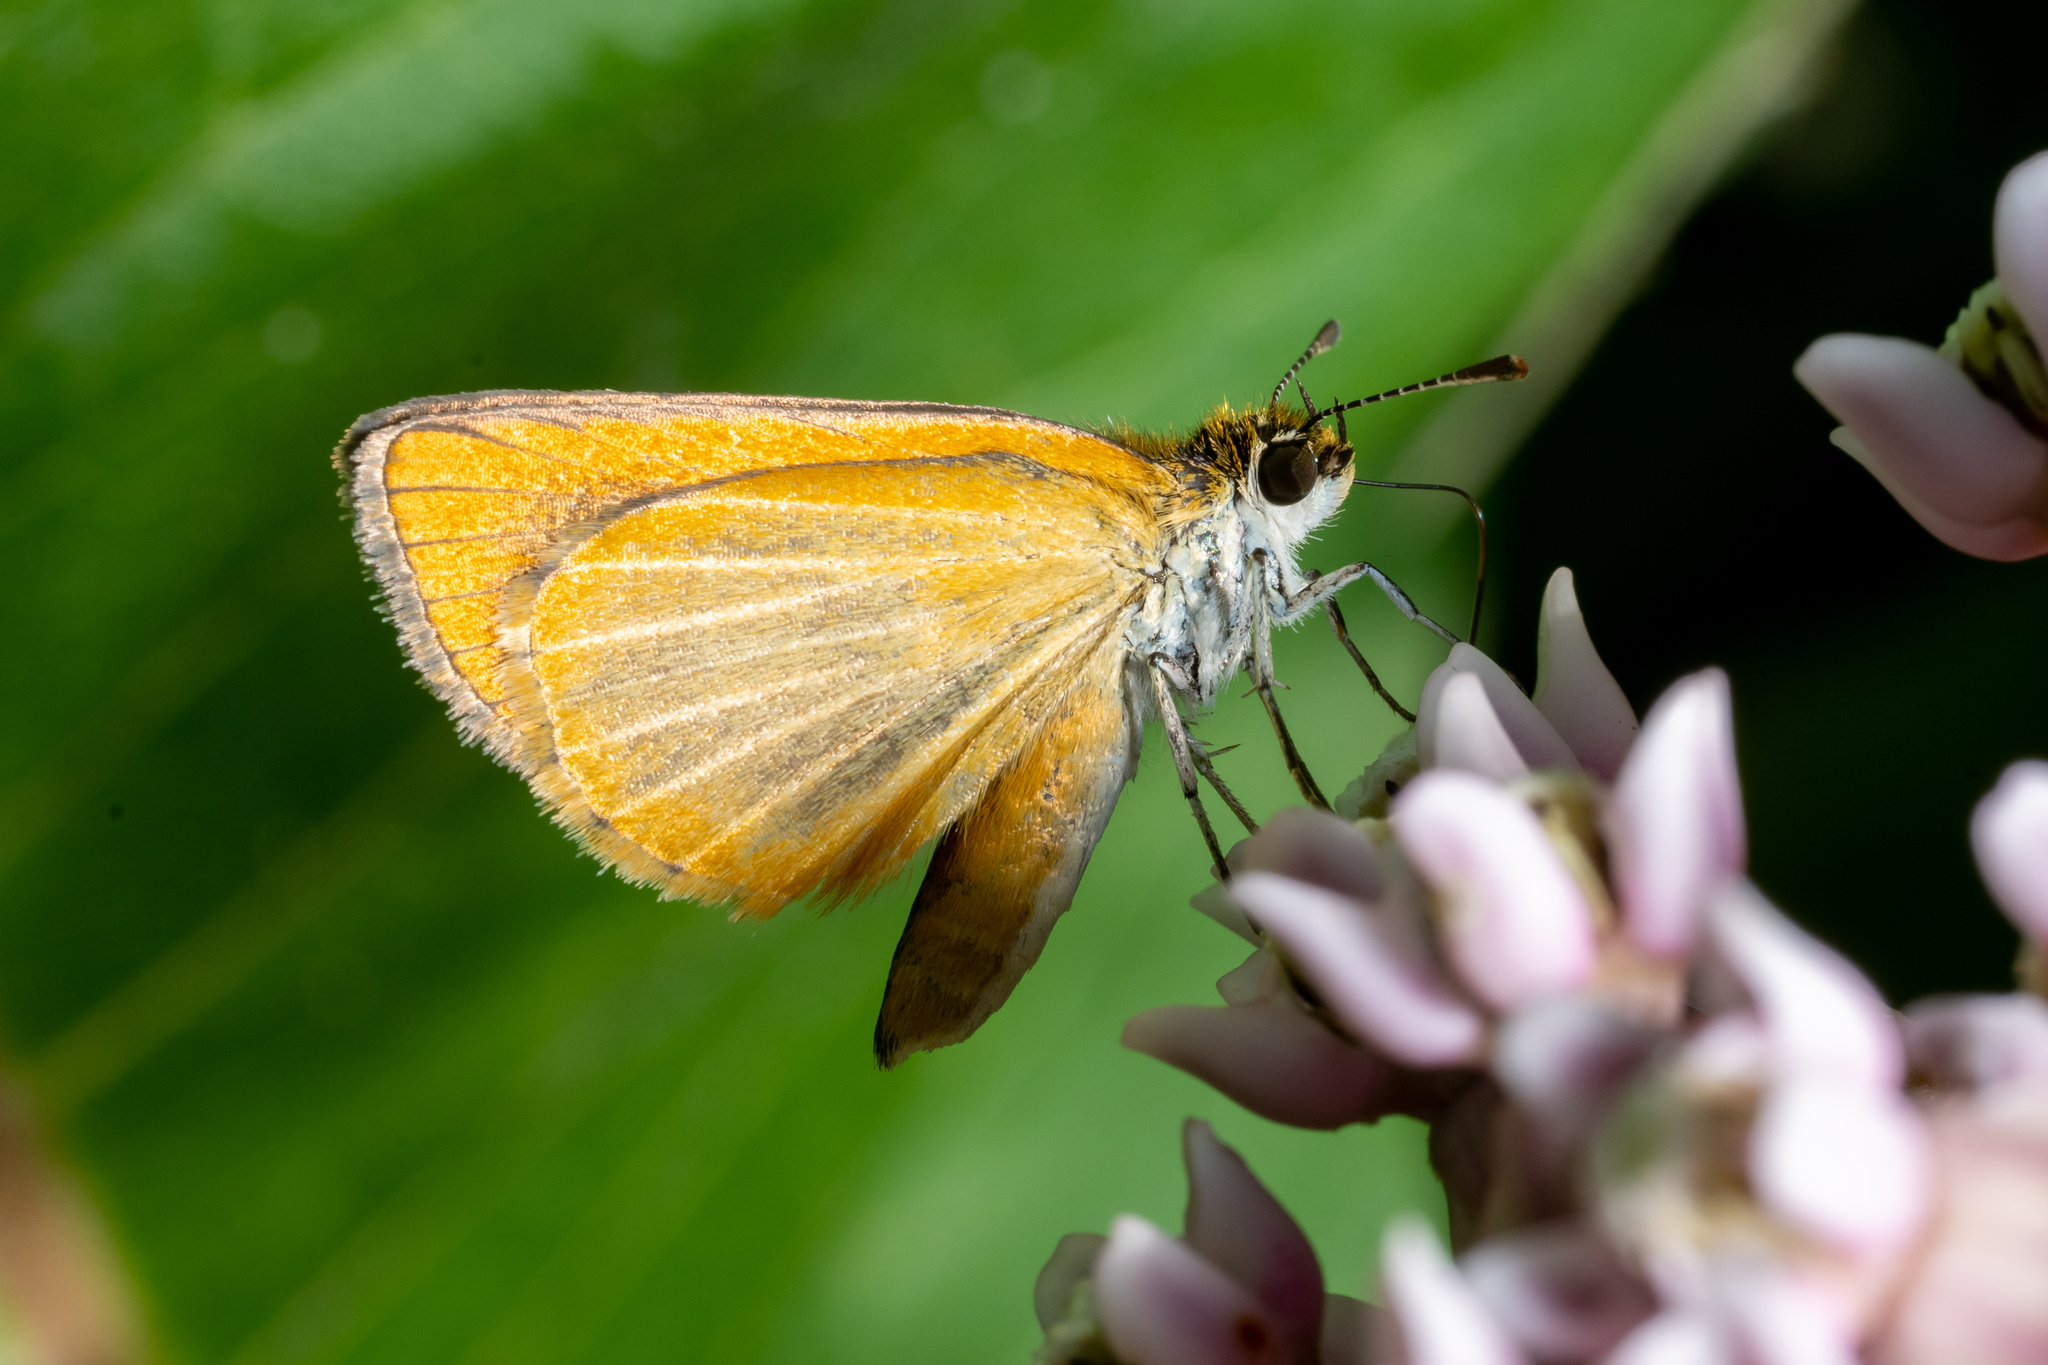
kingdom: Animalia
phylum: Arthropoda
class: Insecta
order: Lepidoptera
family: Hesperiidae
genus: Ancyloxypha
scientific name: Ancyloxypha numitor
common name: Least skipper
